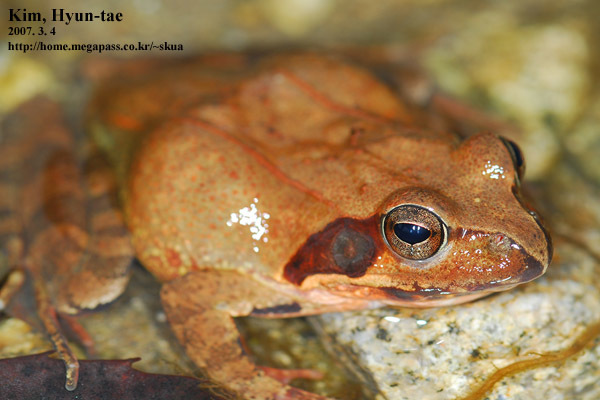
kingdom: Animalia
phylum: Chordata
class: Amphibia
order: Anura
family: Ranidae
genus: Rana
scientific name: Rana uenoi
